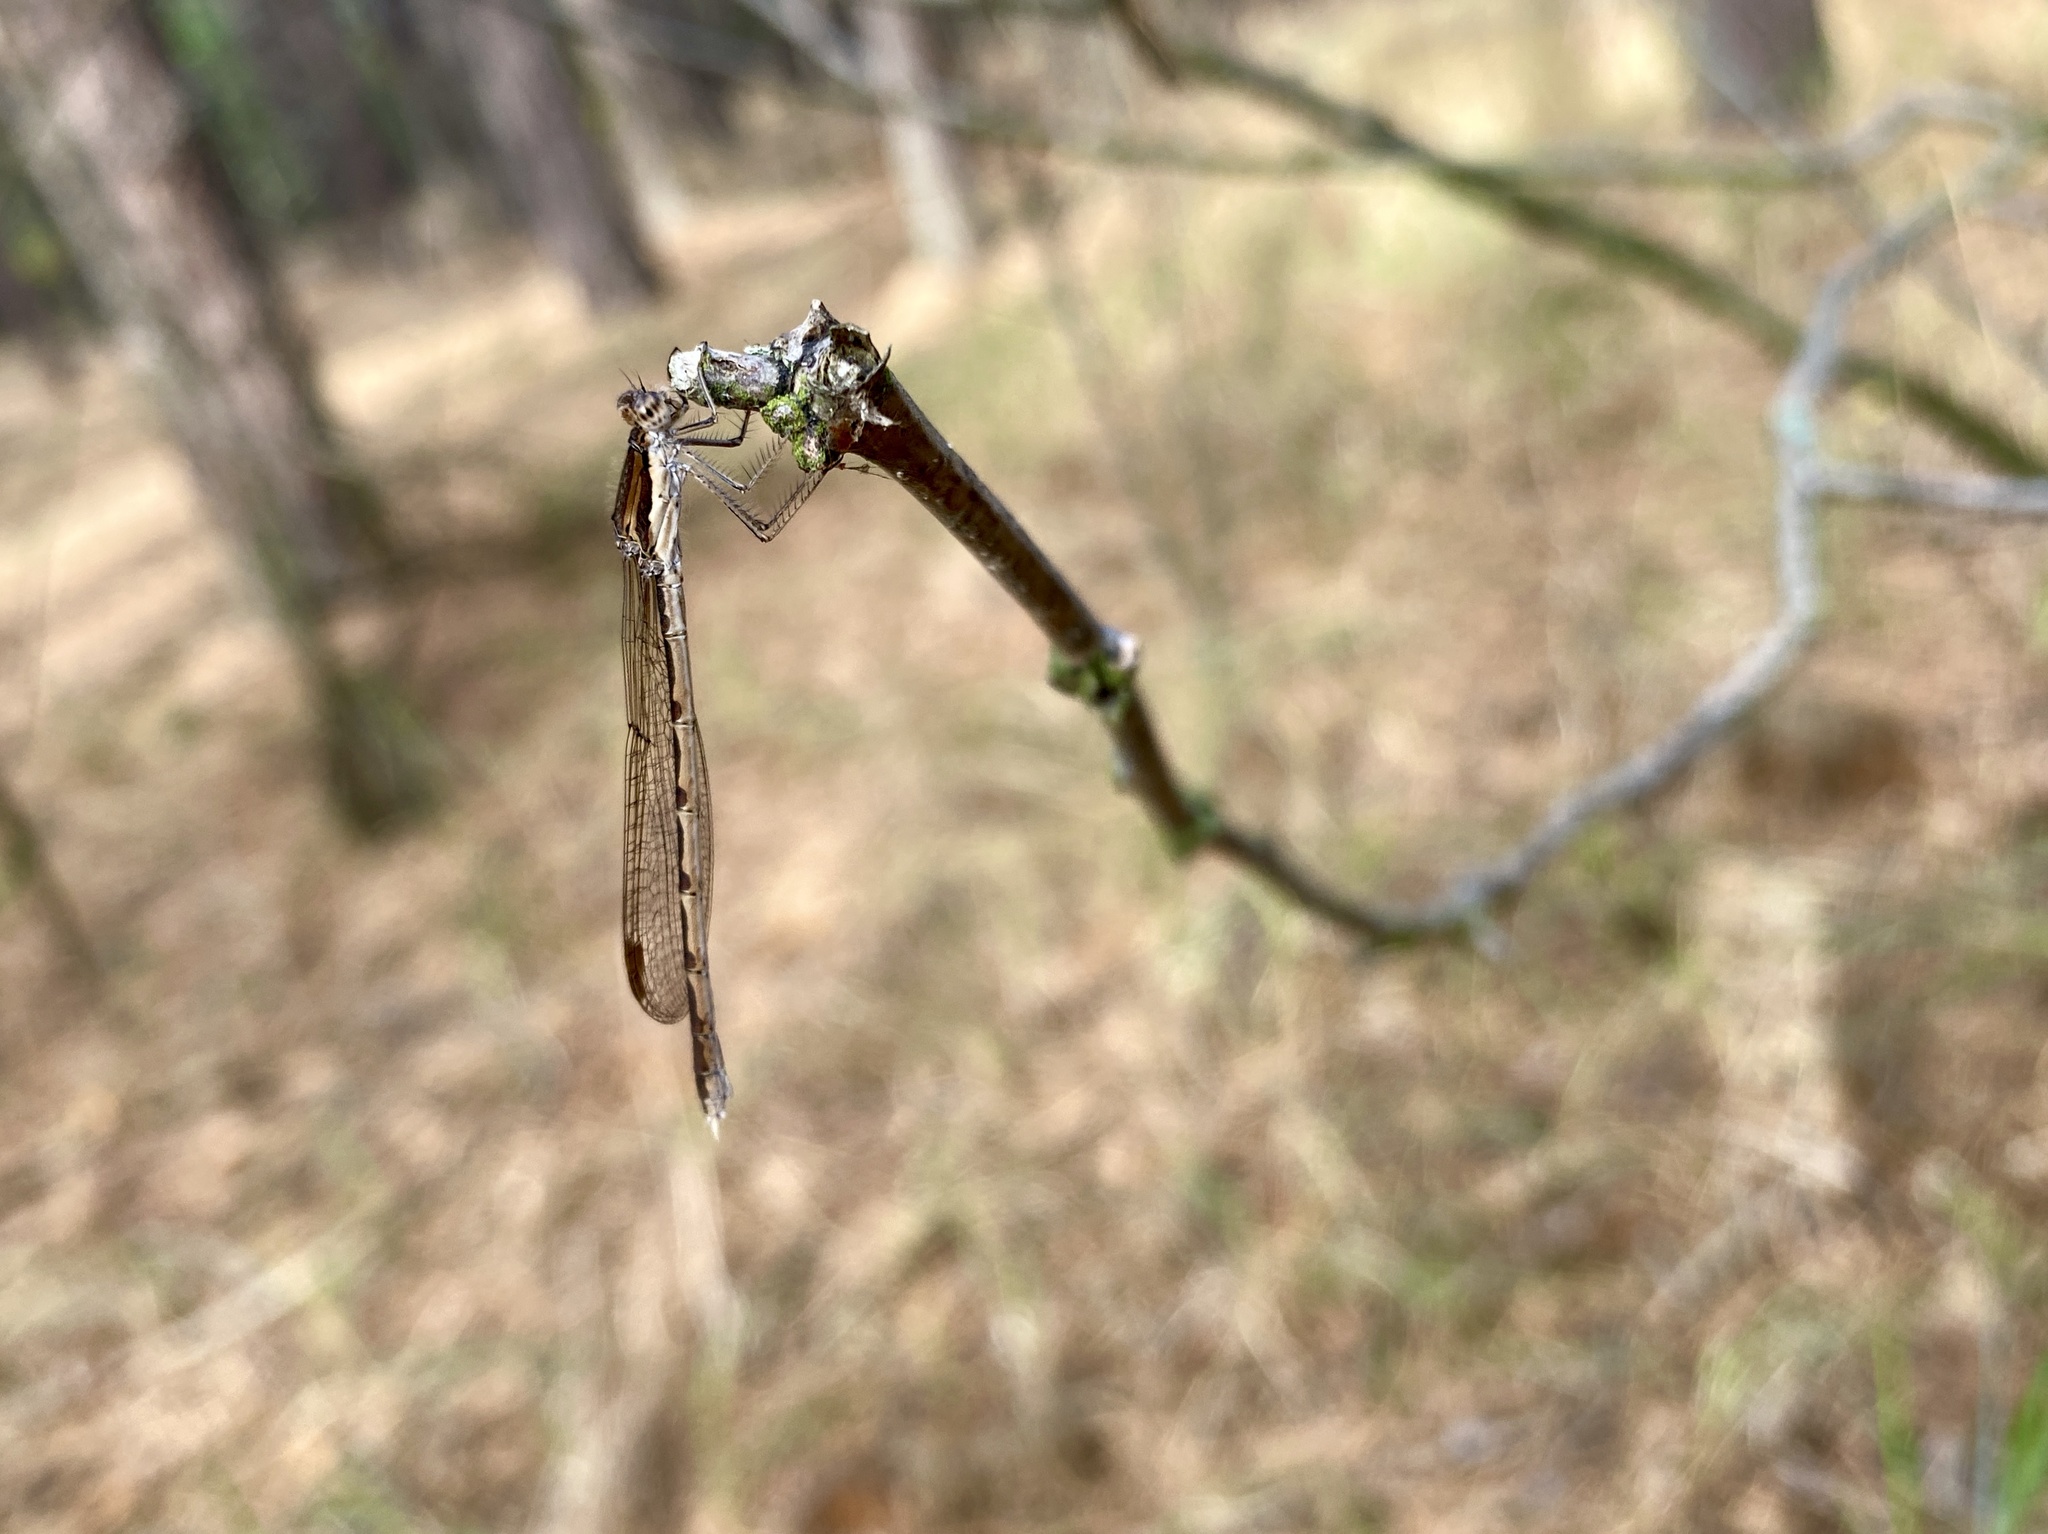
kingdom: Animalia
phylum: Arthropoda
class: Insecta
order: Odonata
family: Lestidae
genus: Sympecma
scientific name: Sympecma fusca
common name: Common winter damsel
